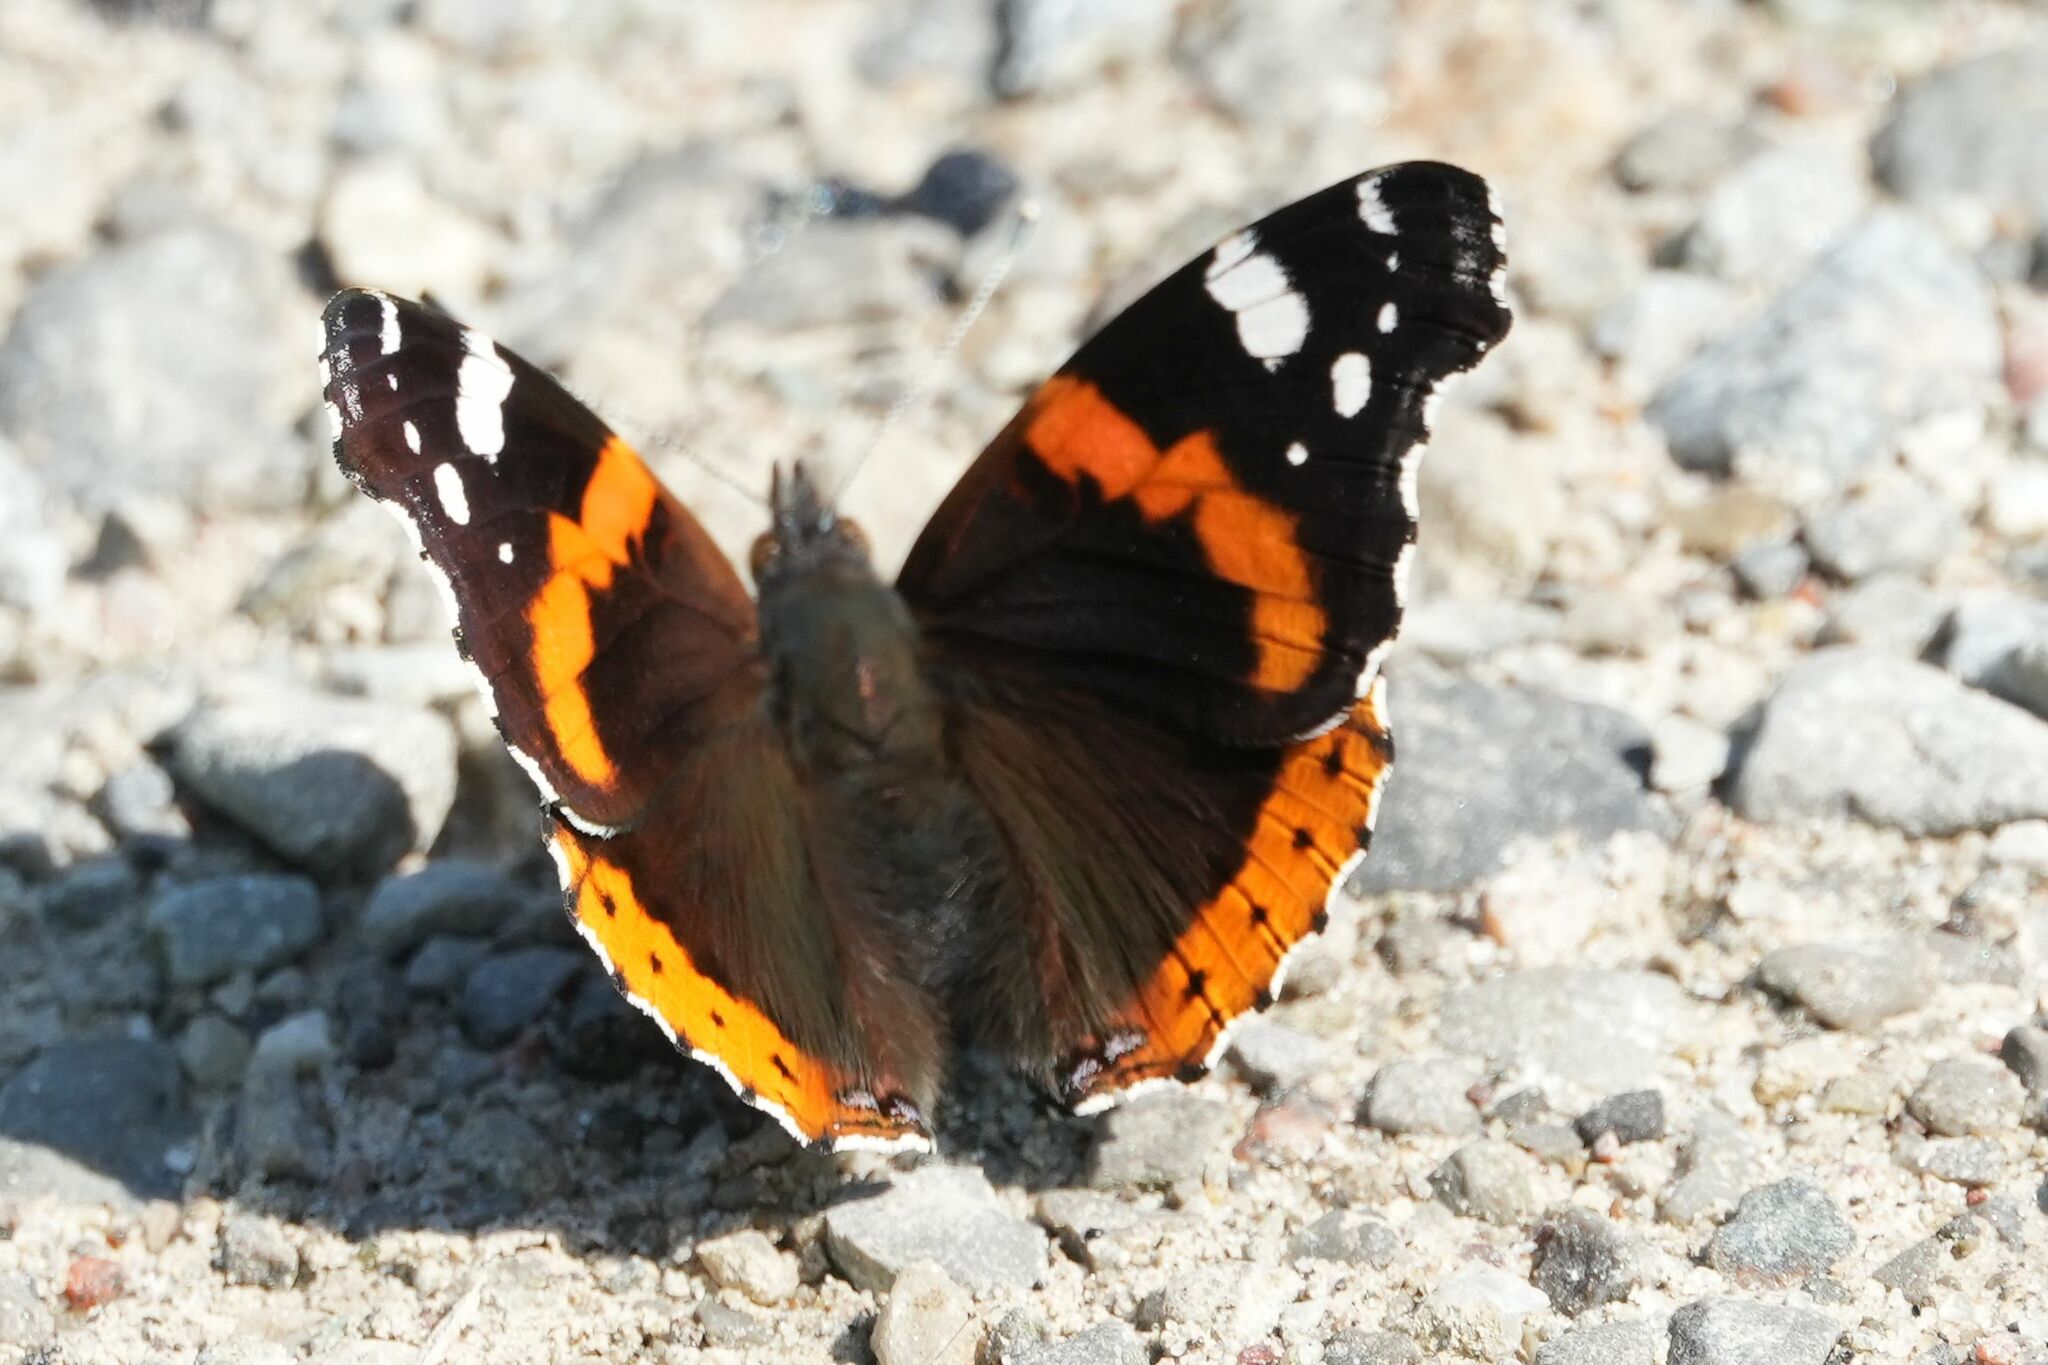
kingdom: Animalia
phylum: Arthropoda
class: Insecta
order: Lepidoptera
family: Nymphalidae
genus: Vanessa
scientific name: Vanessa atalanta
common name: Red admiral
